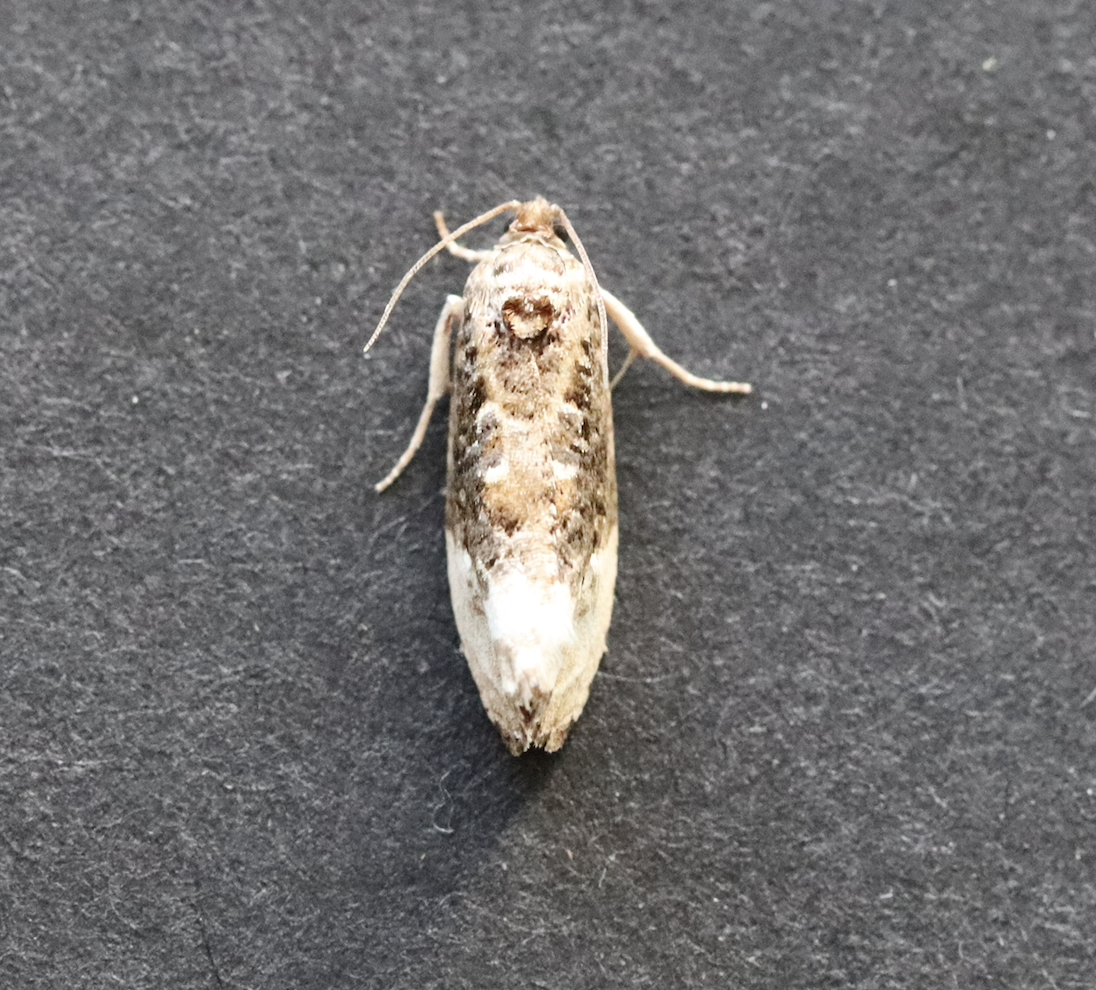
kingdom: Animalia
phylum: Arthropoda
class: Insecta
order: Lepidoptera
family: Tortricidae
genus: Hedya
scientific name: Hedya nubiferana
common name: Marbled orchard tortrix
